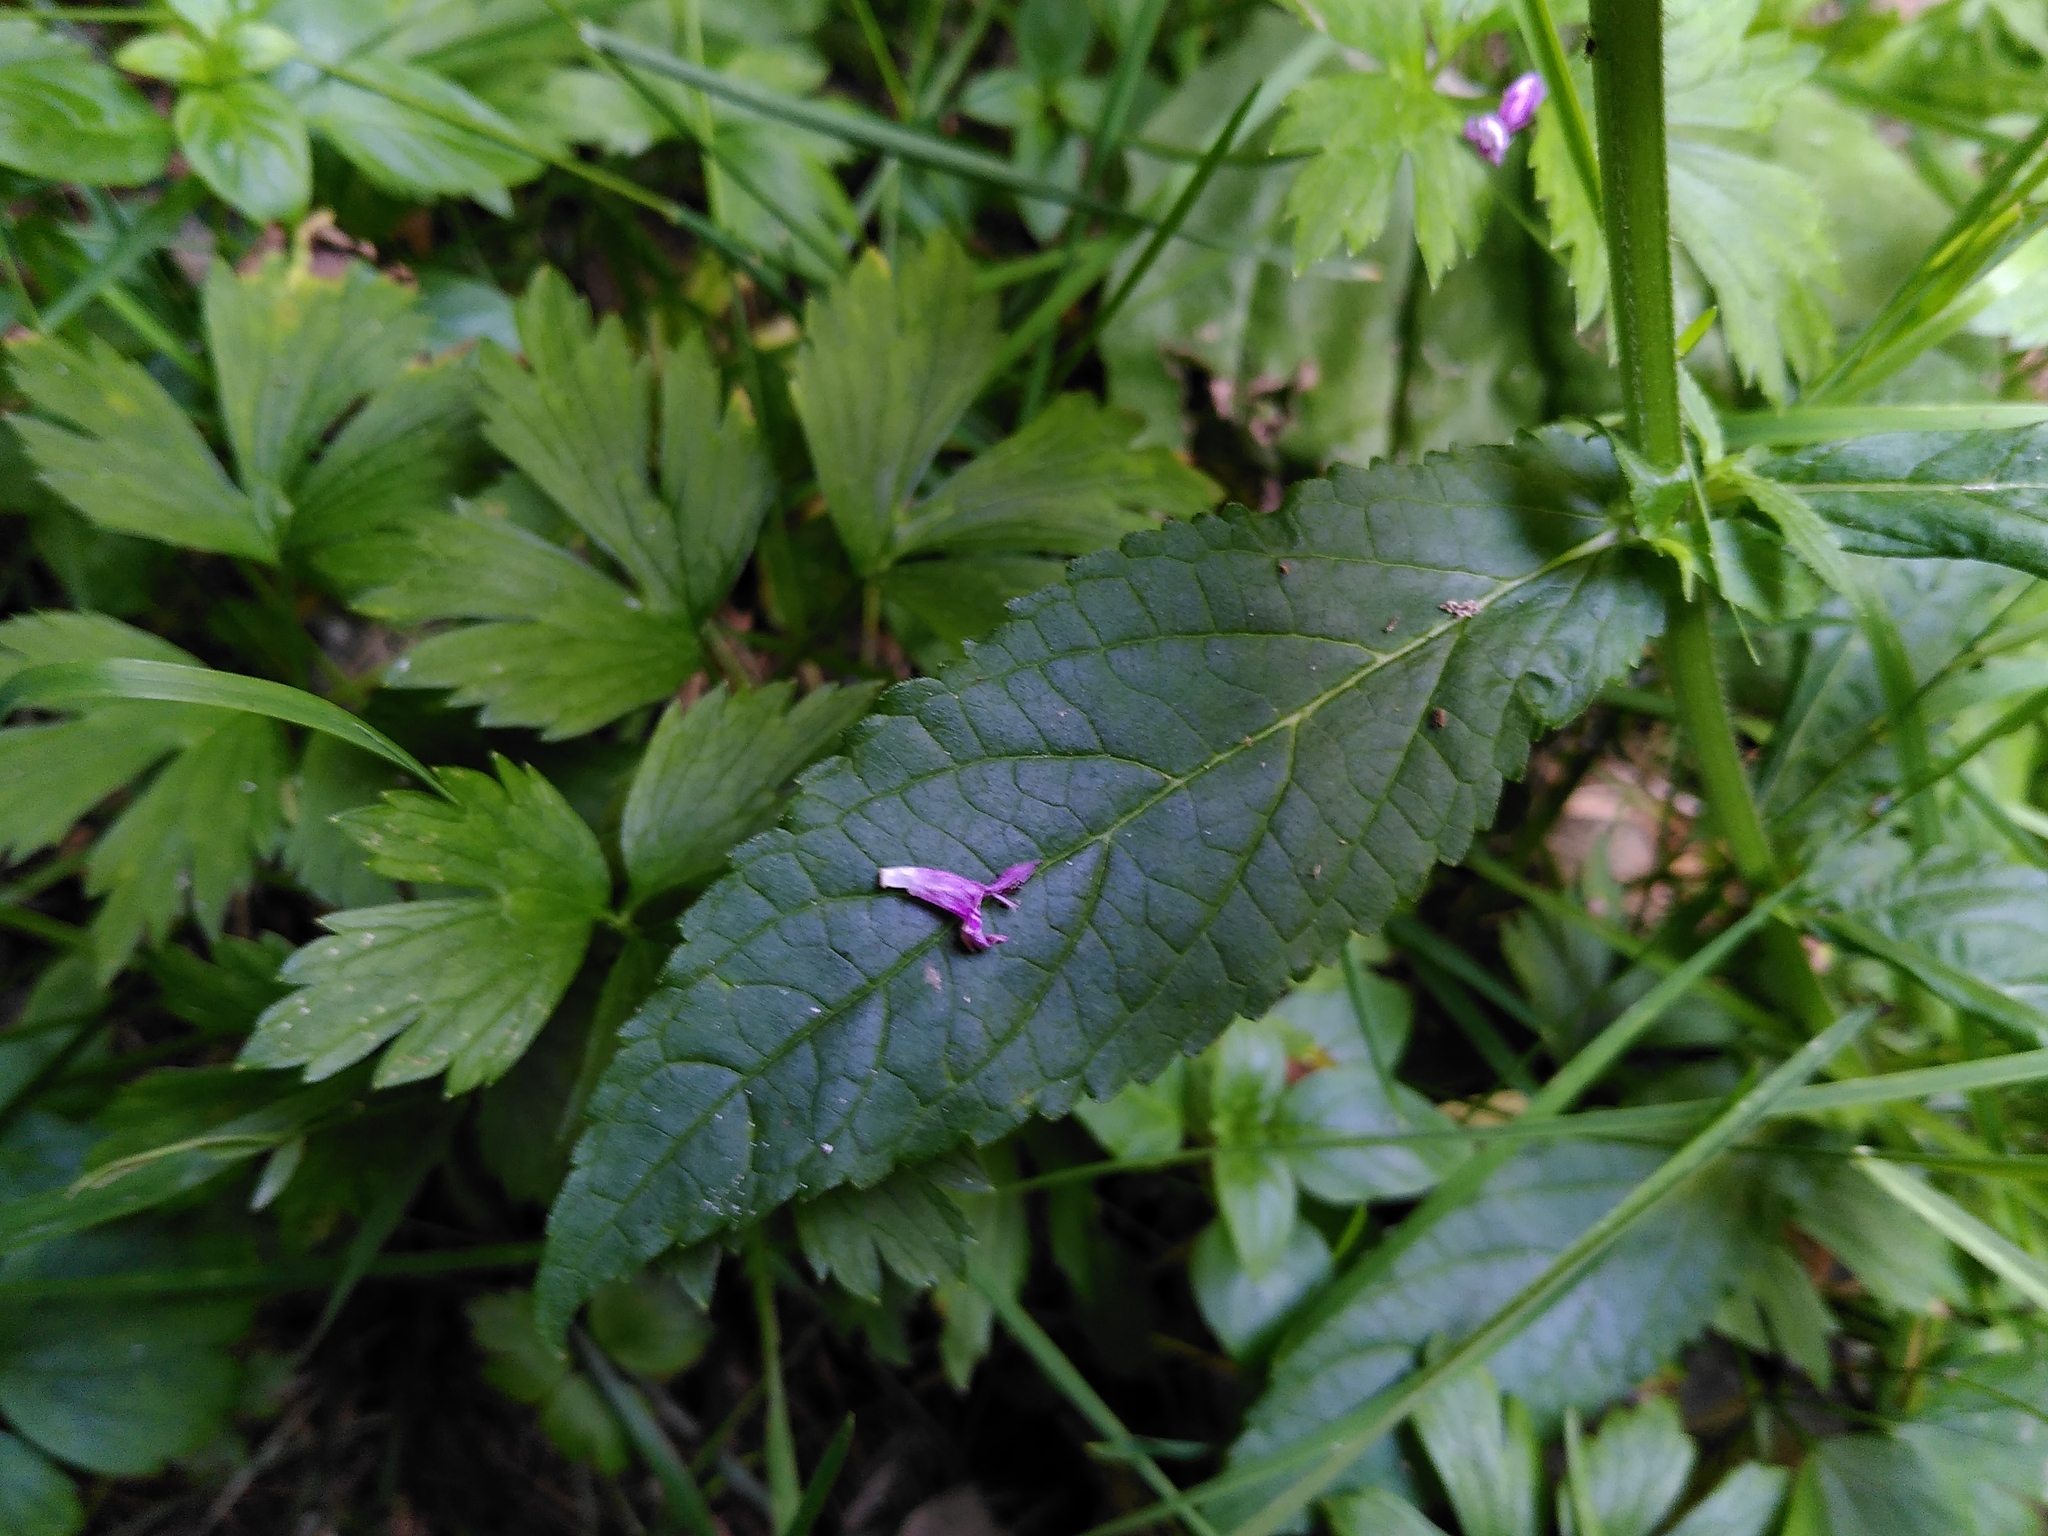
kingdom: Plantae
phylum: Tracheophyta
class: Magnoliopsida
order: Lamiales
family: Lamiaceae
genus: Stachys
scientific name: Stachys palustris
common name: Marsh woundwort
